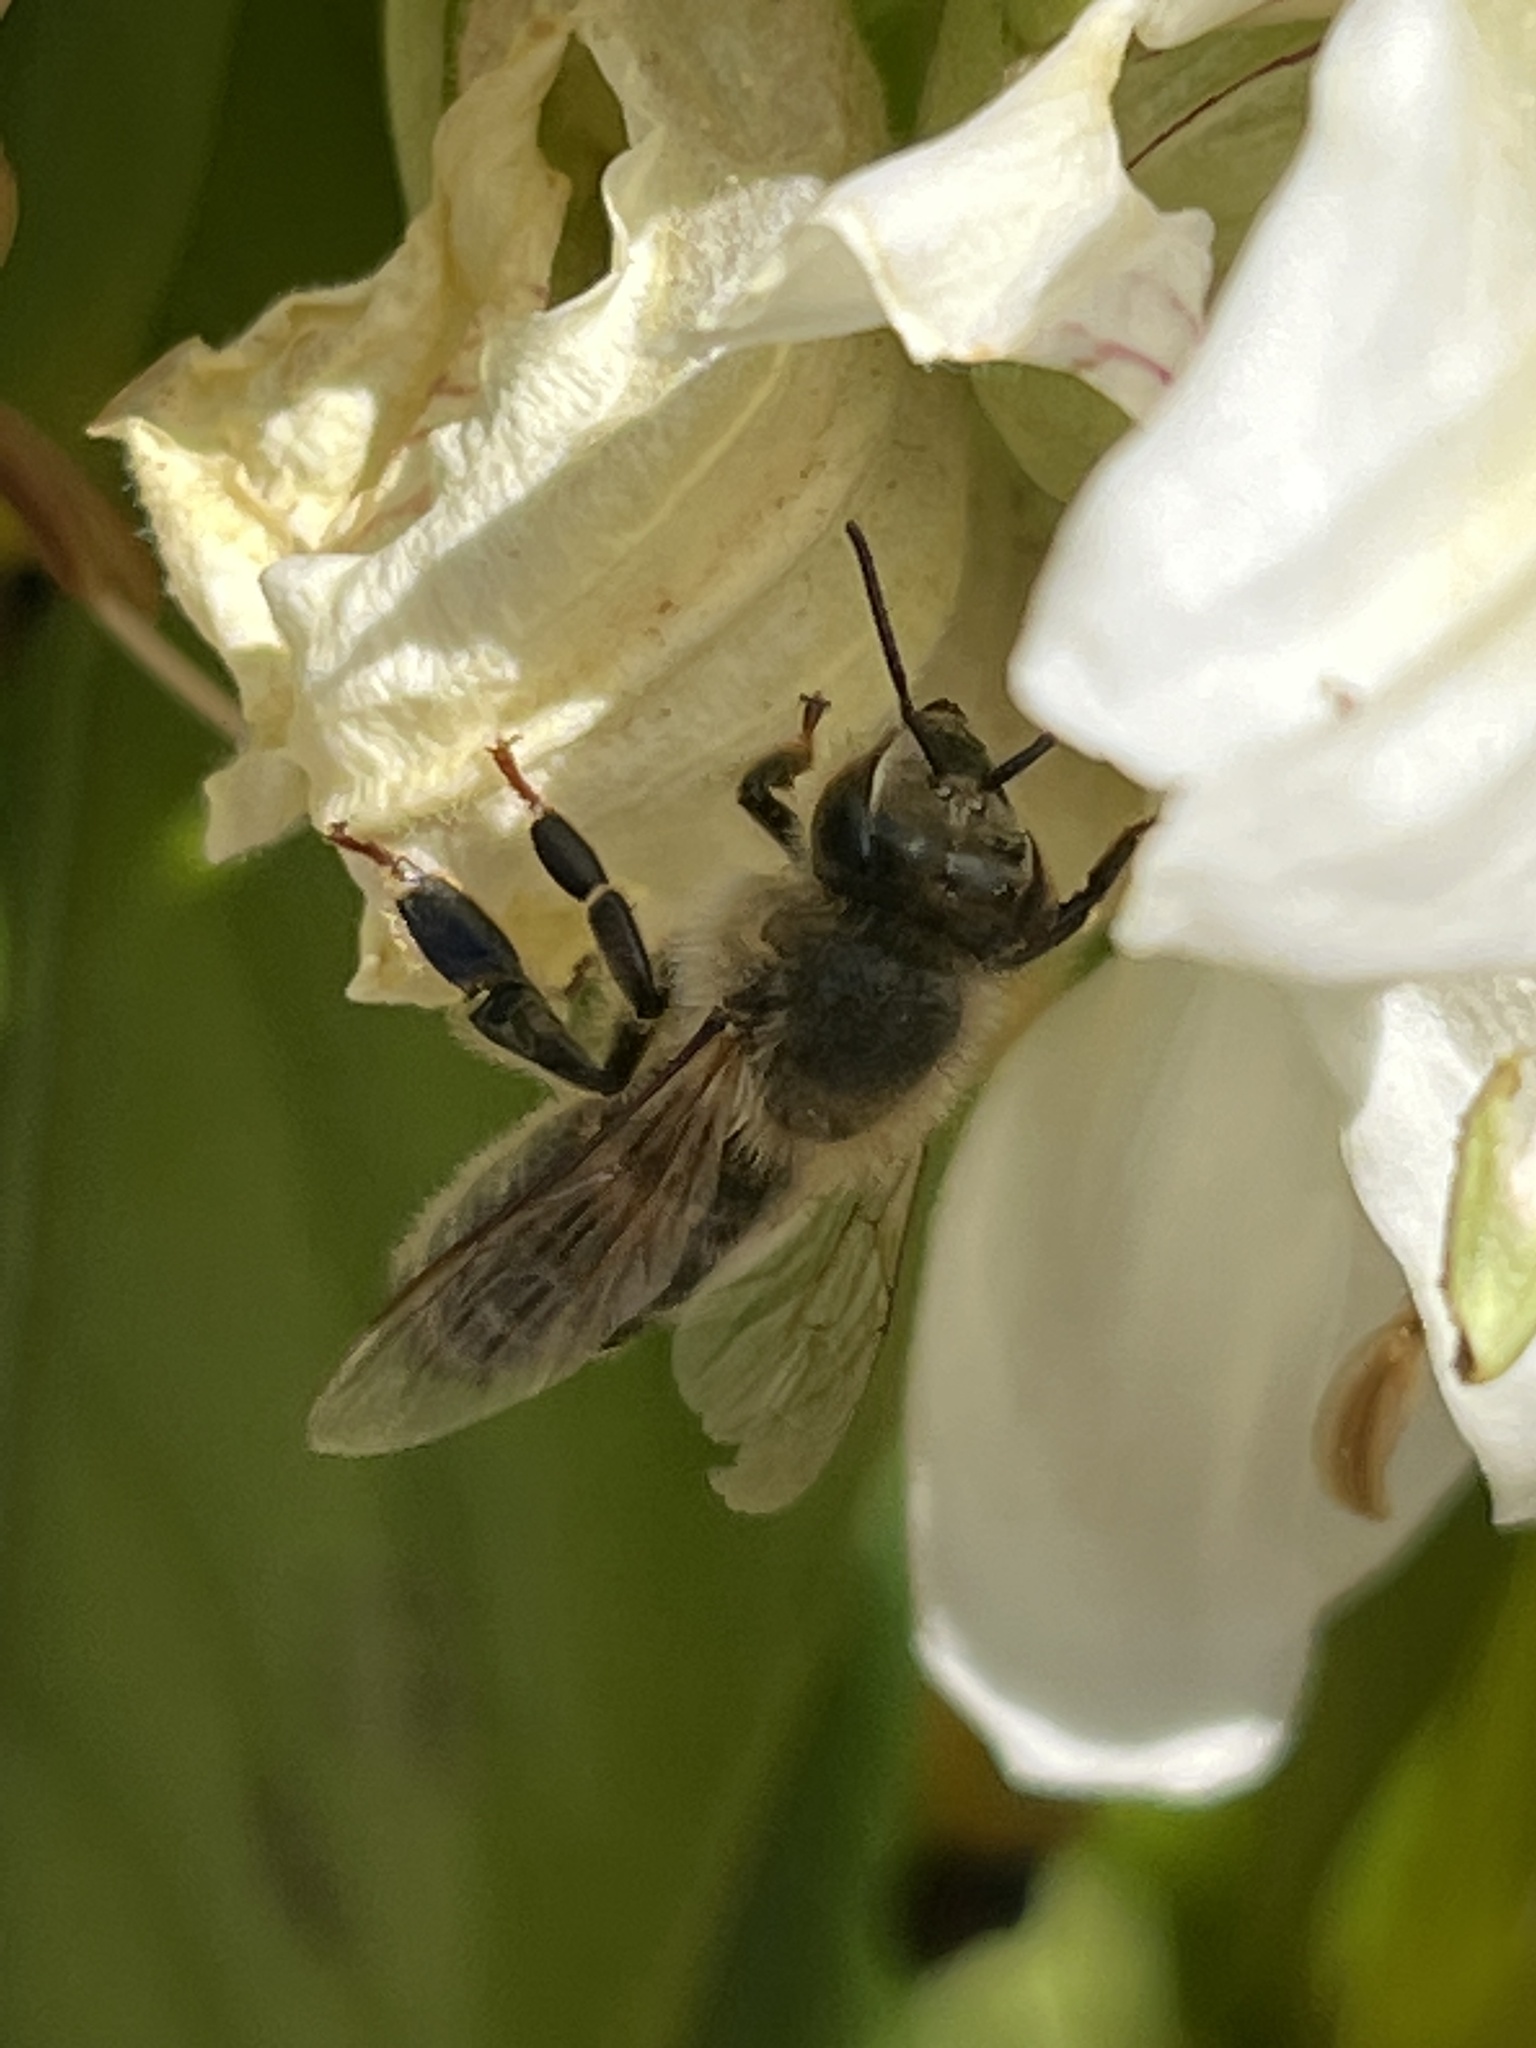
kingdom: Animalia
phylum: Arthropoda
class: Insecta
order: Hymenoptera
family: Apidae
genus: Apis
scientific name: Apis mellifera
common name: Honey bee
